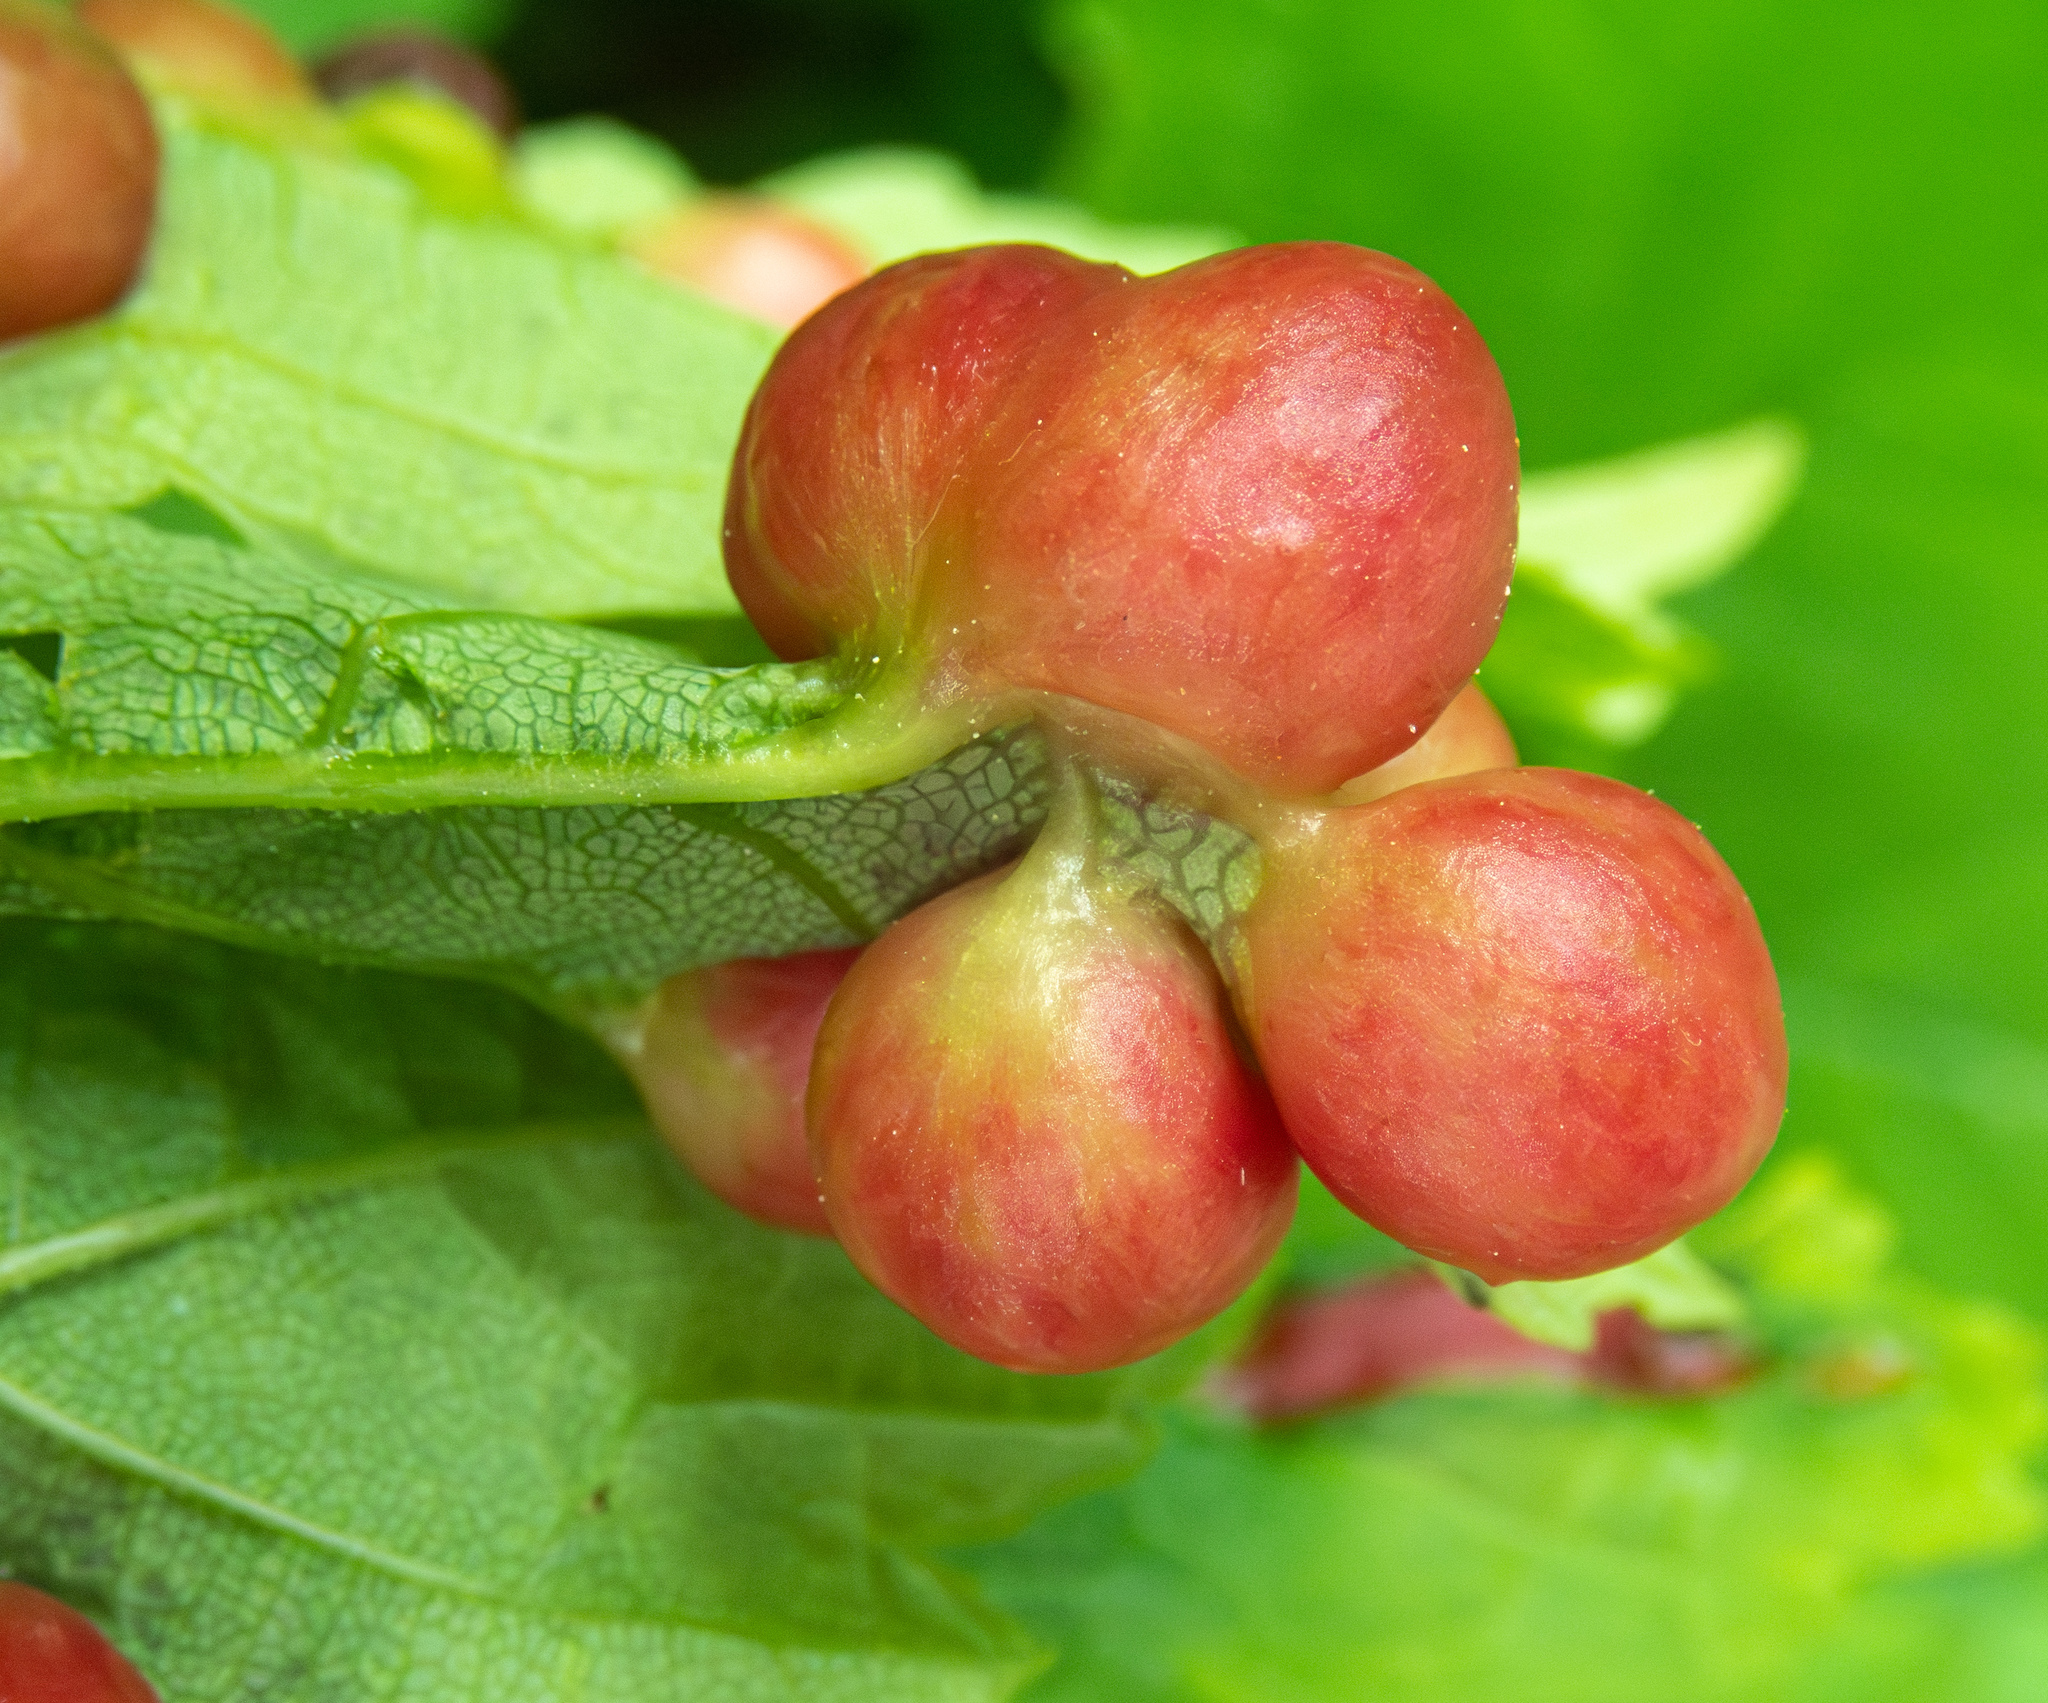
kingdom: Animalia
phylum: Arthropoda
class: Insecta
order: Hymenoptera
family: Cynipidae
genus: Pediaspis
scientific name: Pediaspis aceris
